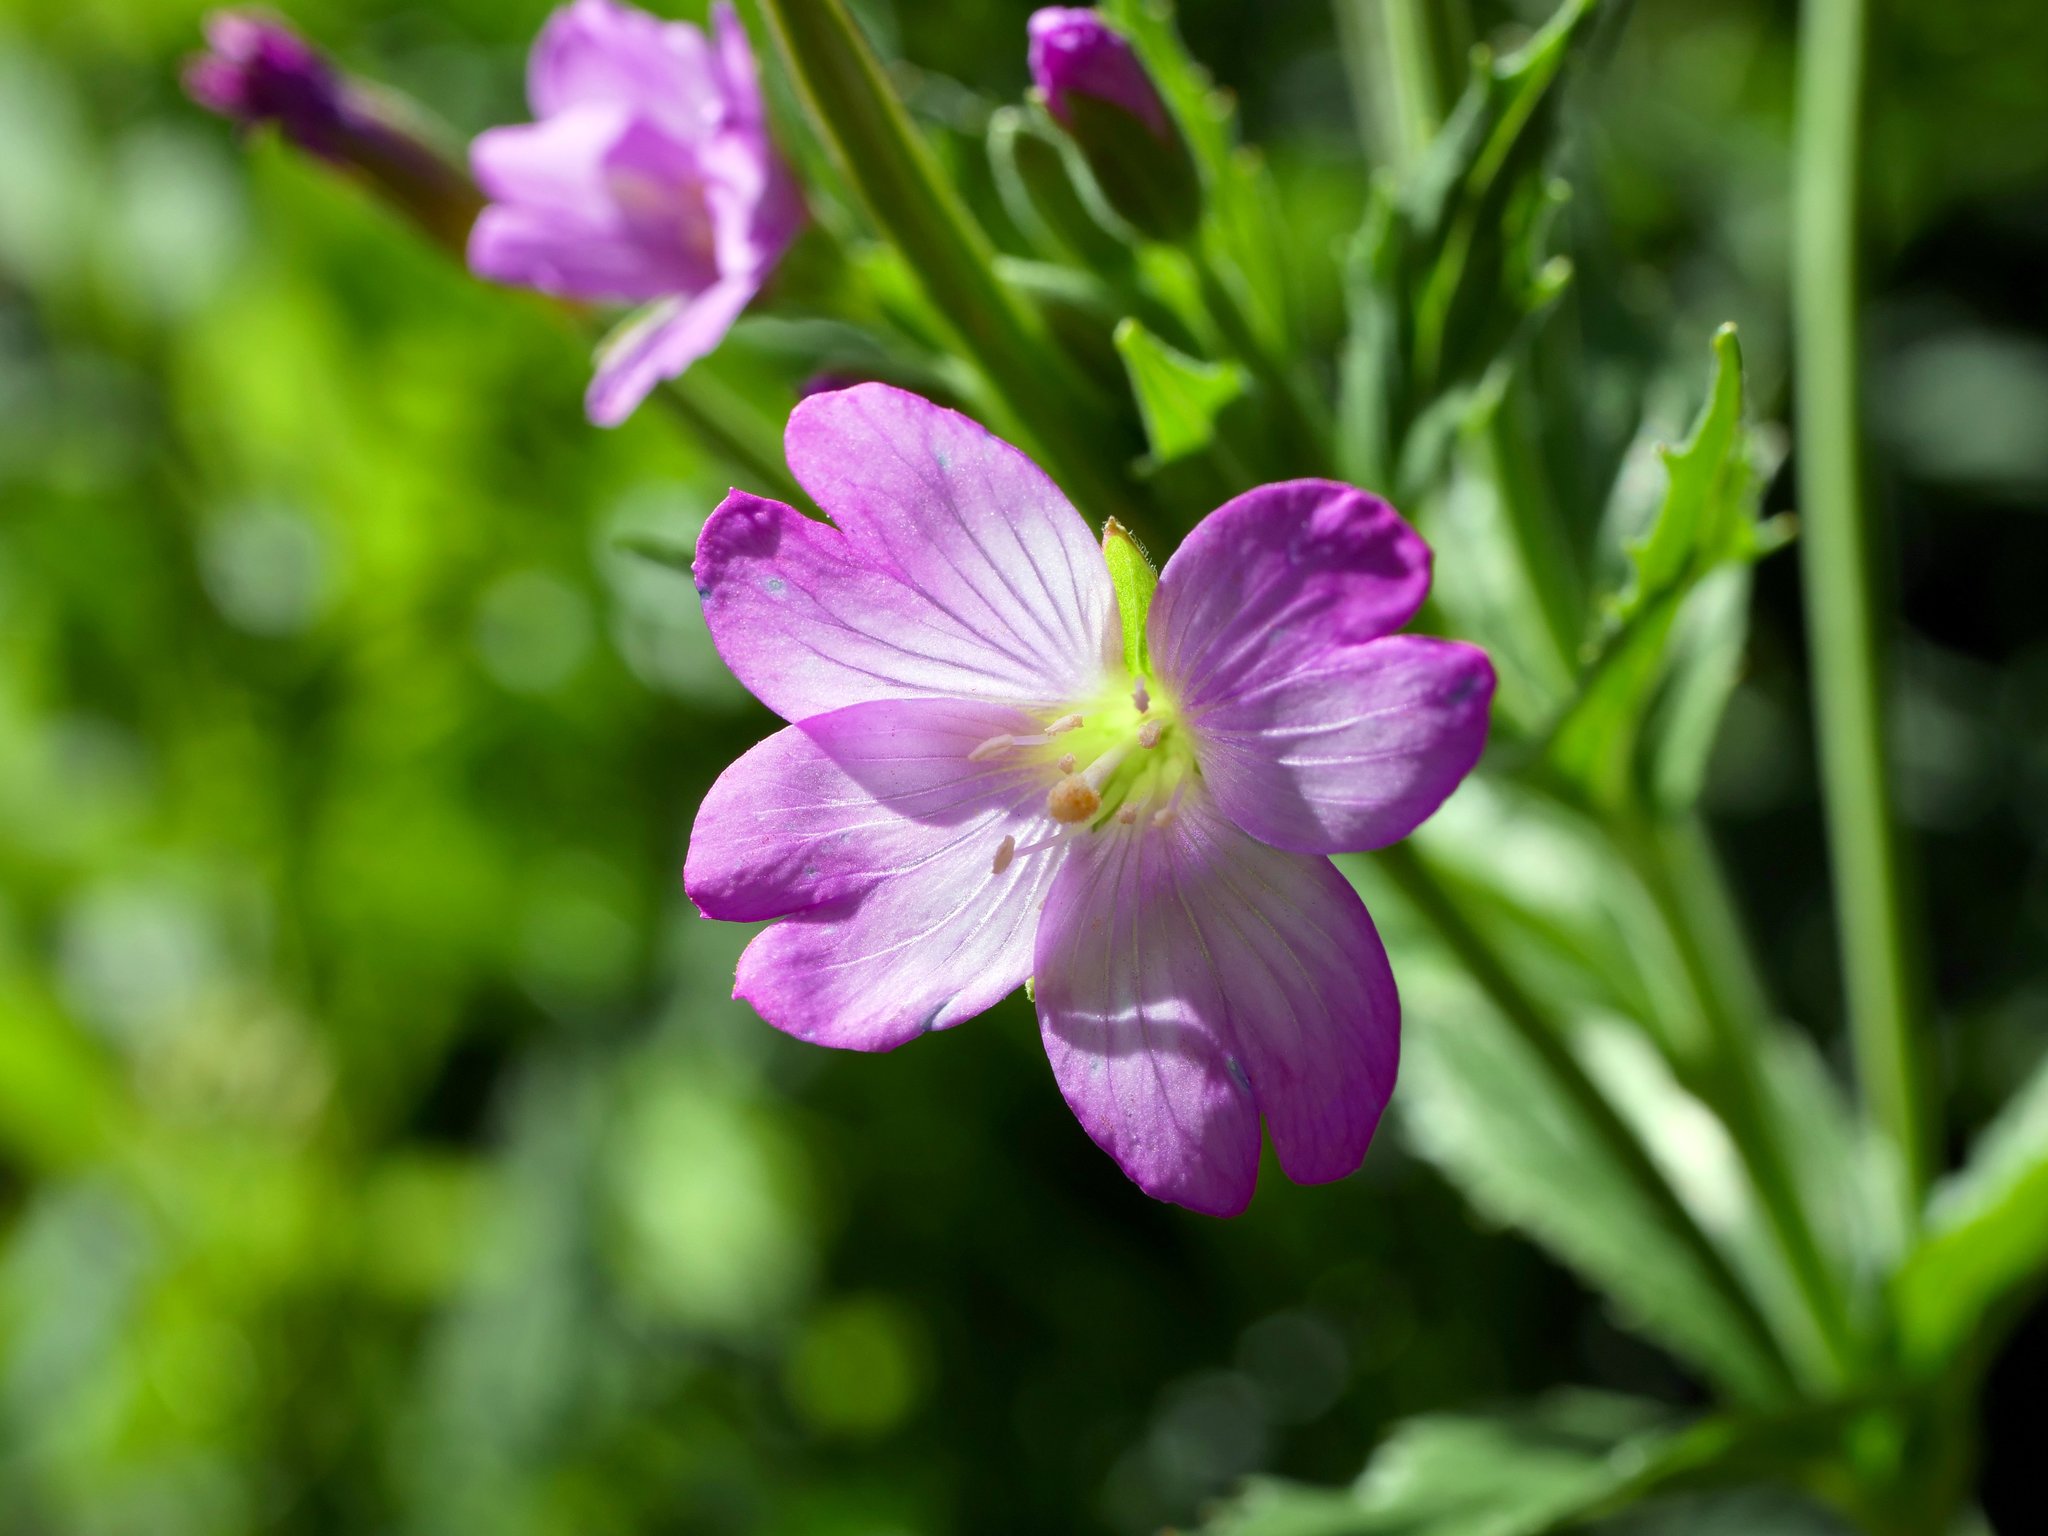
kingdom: Plantae
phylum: Tracheophyta
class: Magnoliopsida
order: Myrtales
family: Onagraceae
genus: Epilobium
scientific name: Epilobium alpestre
